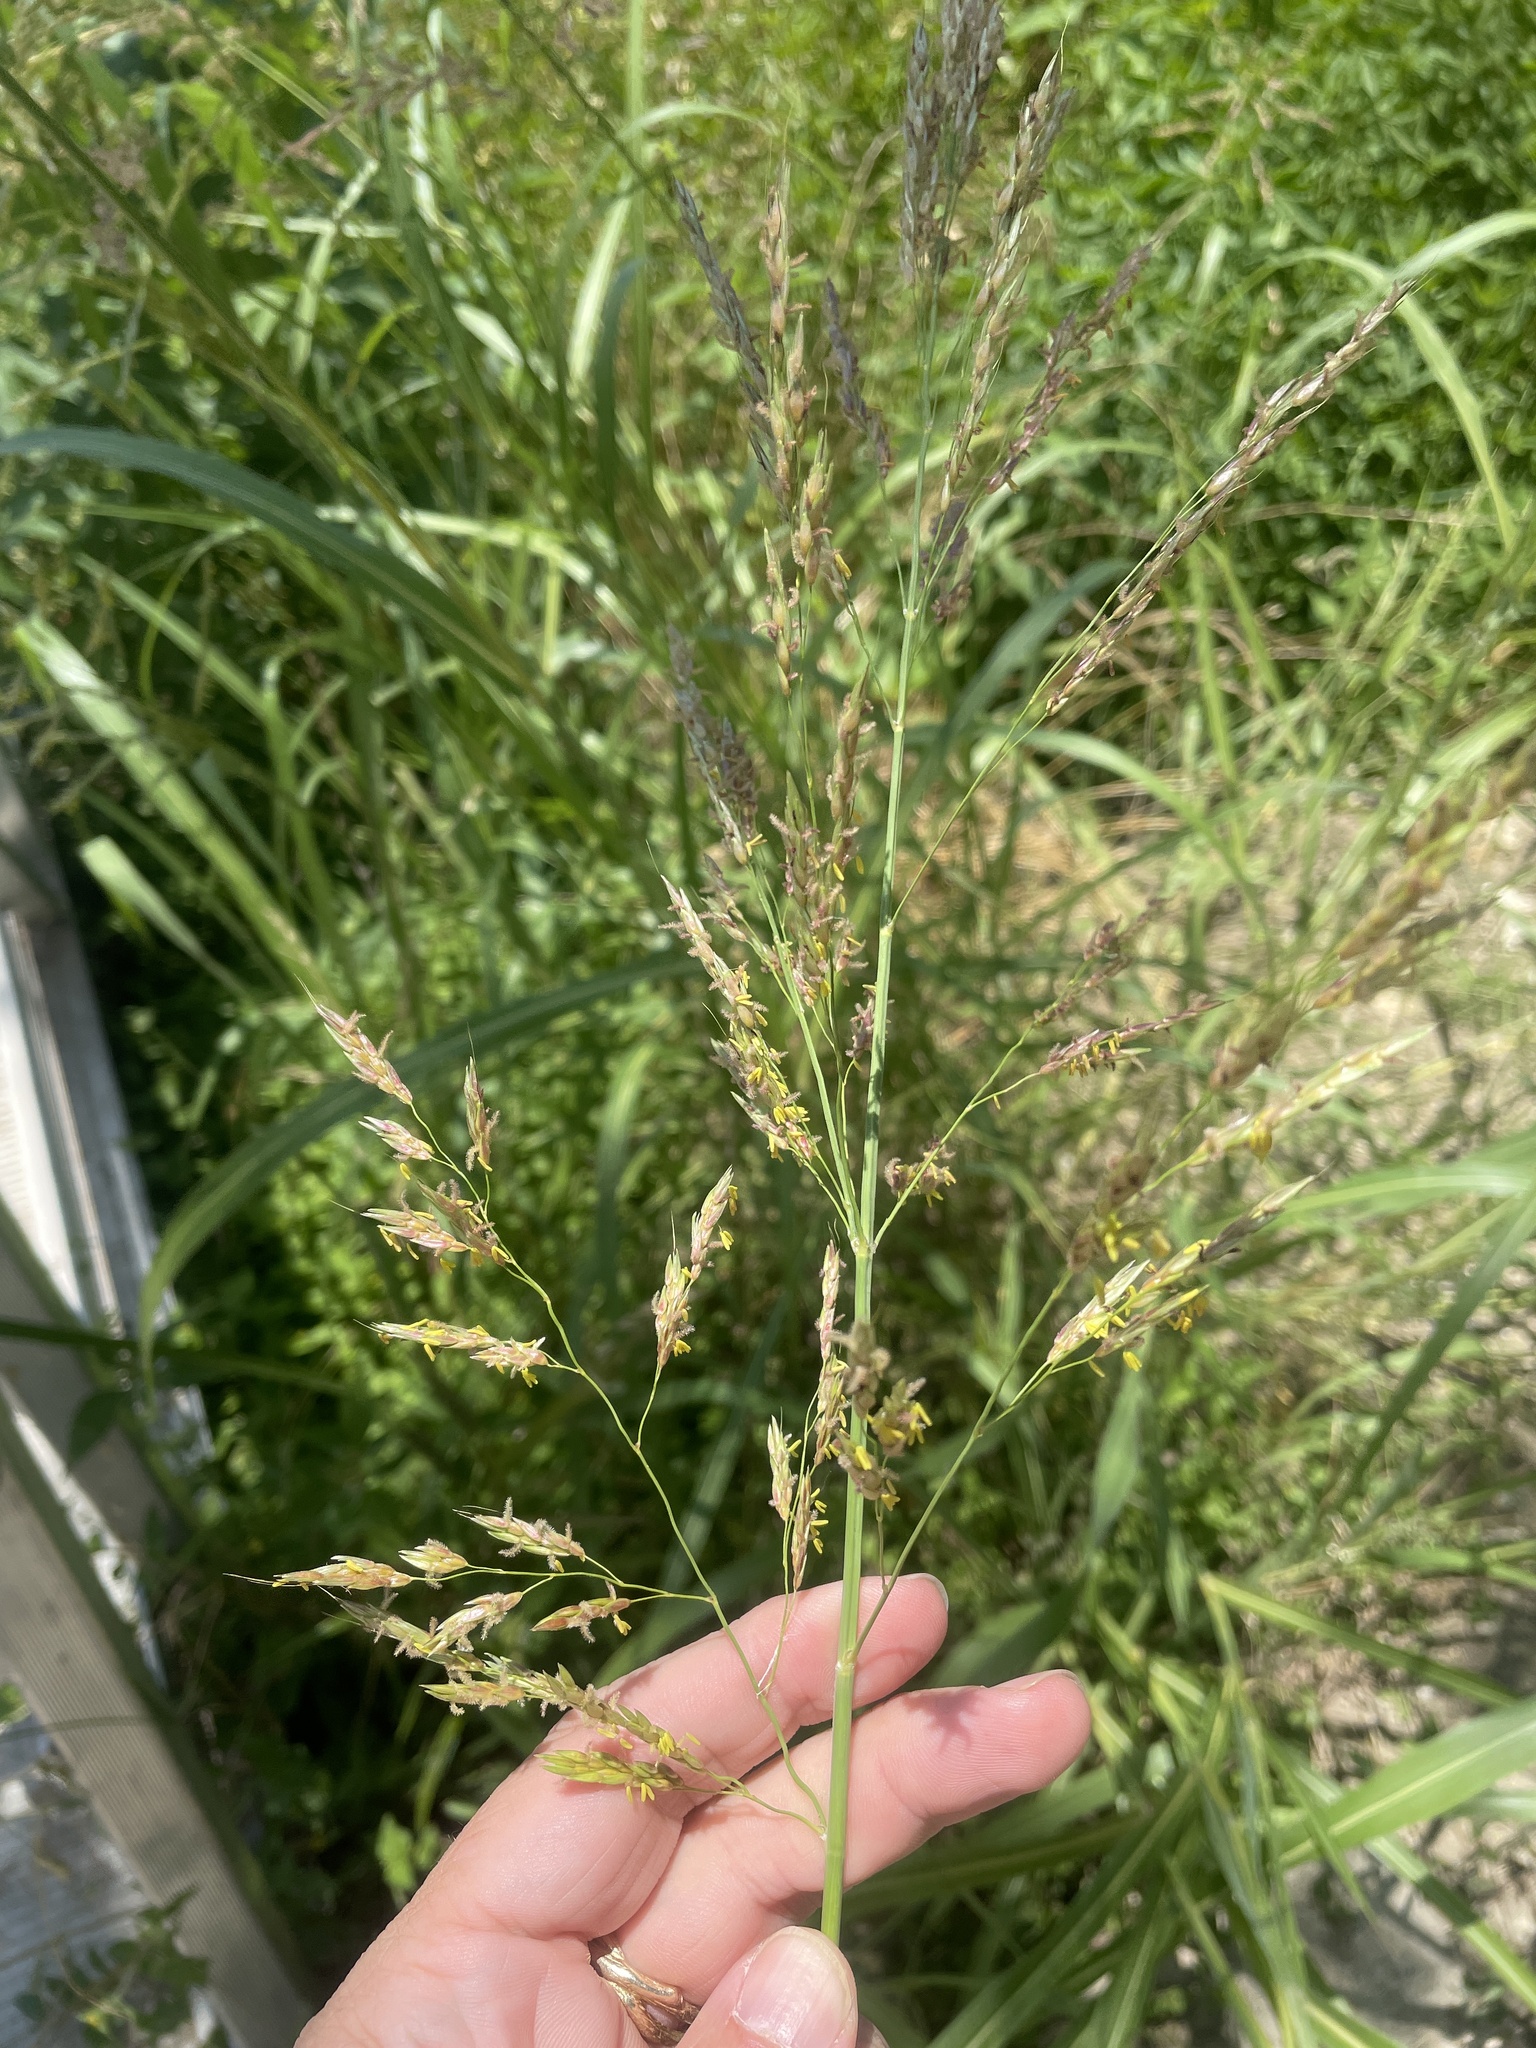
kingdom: Plantae
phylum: Tracheophyta
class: Liliopsida
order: Poales
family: Poaceae
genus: Sorghum
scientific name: Sorghum halepense
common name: Johnson-grass
